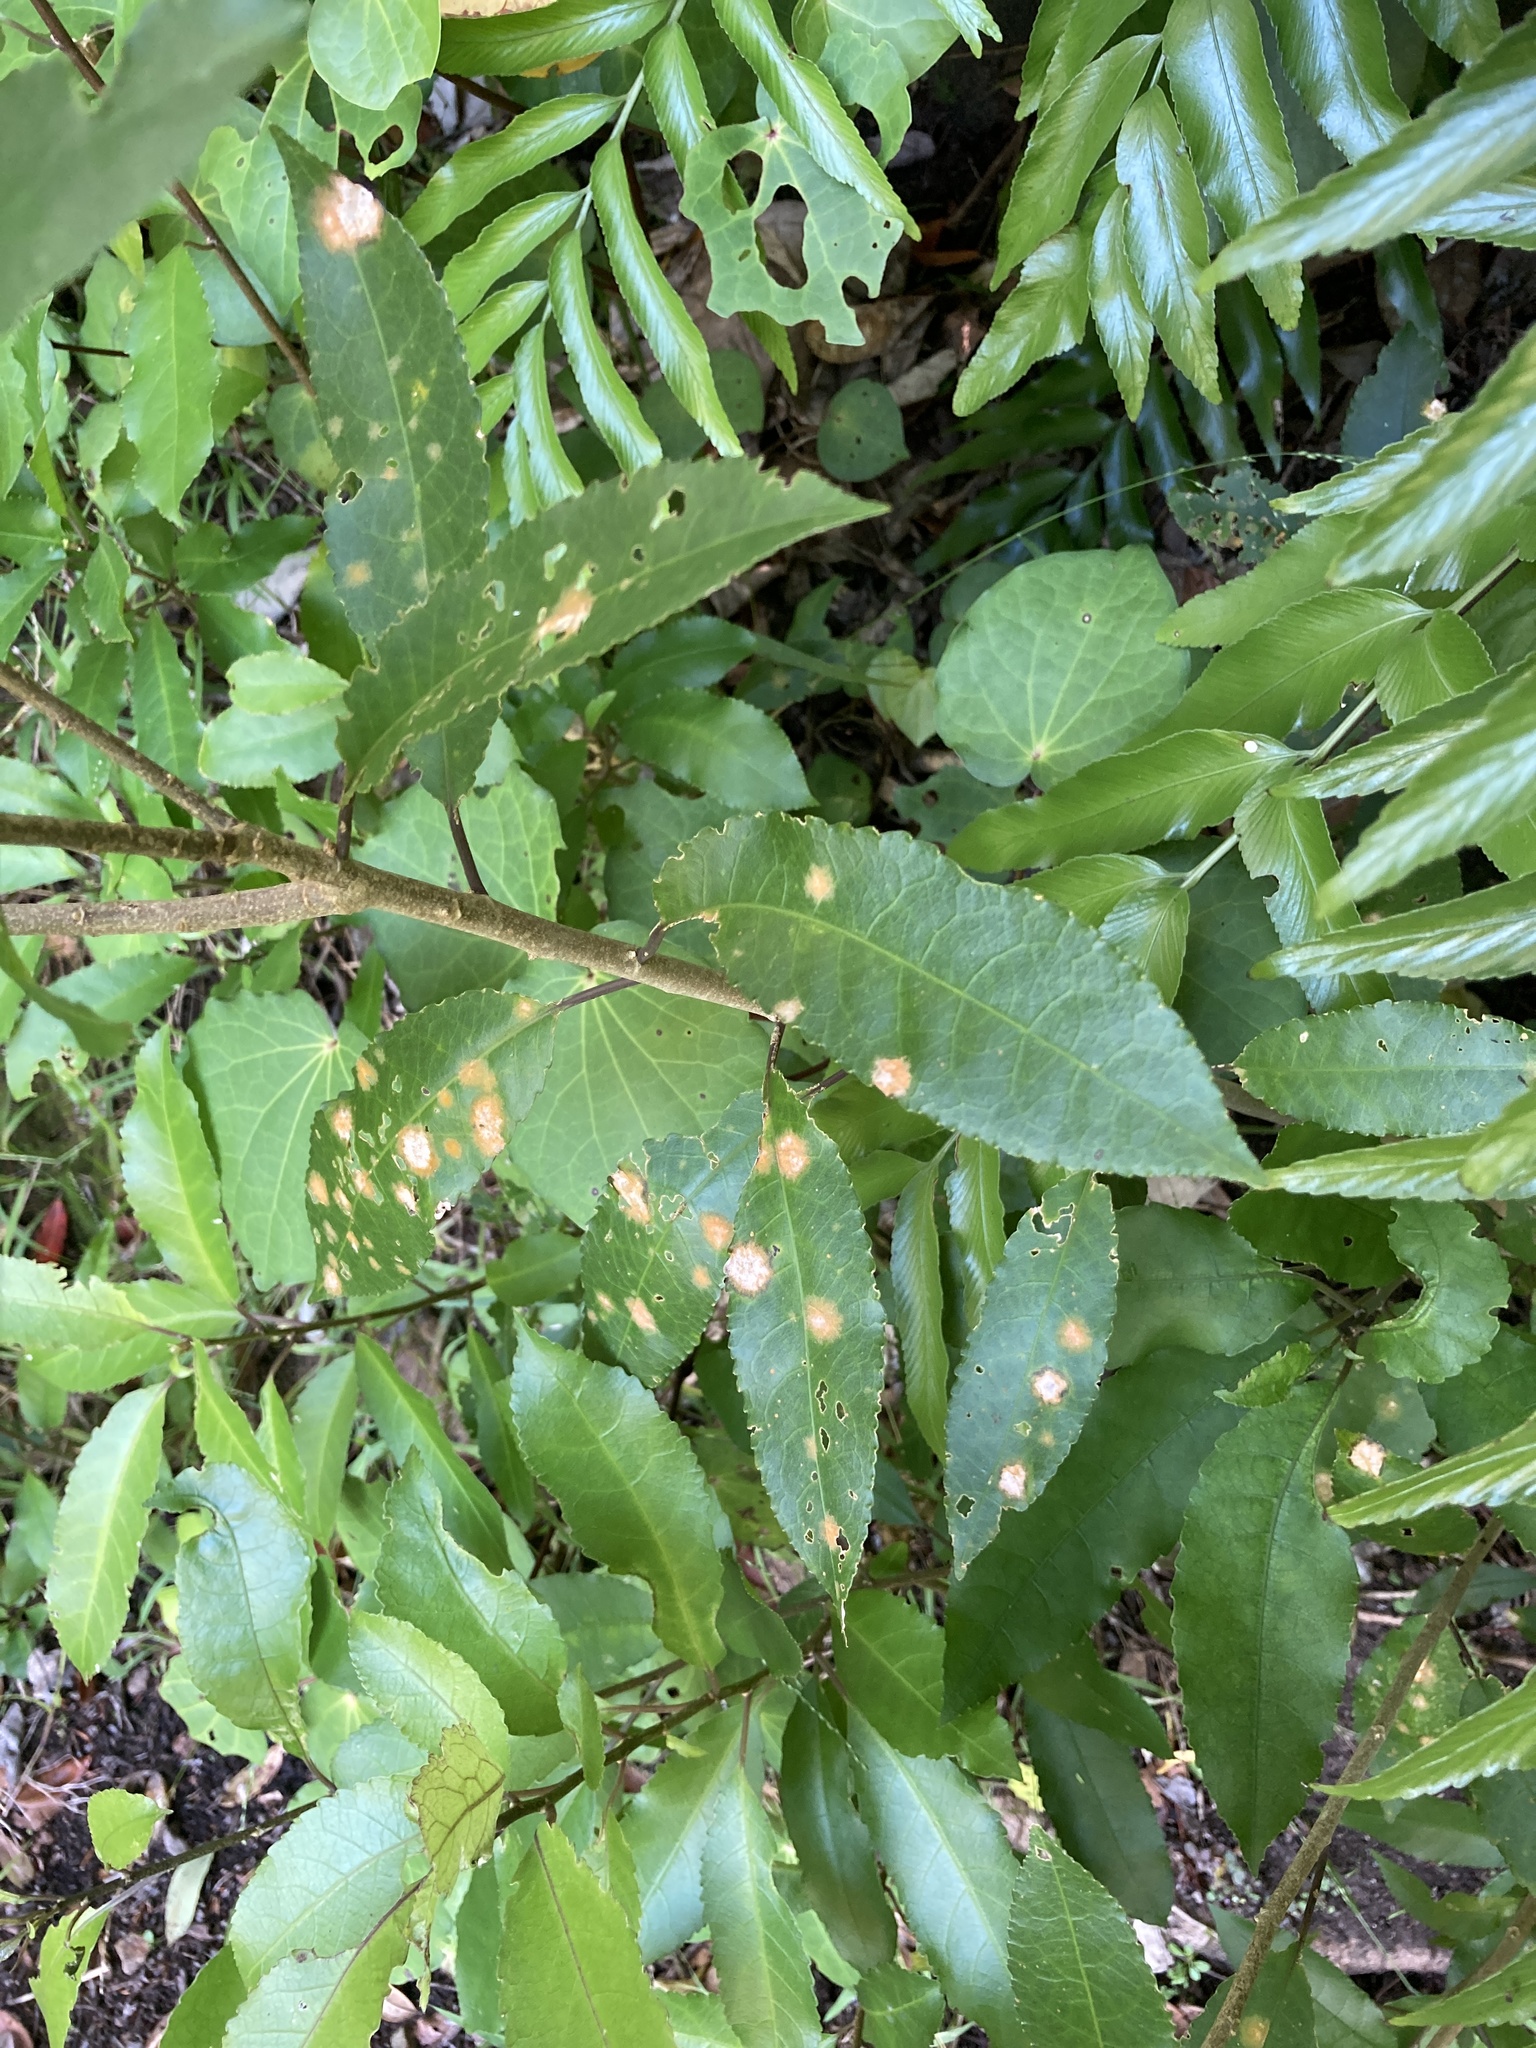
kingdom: Plantae
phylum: Tracheophyta
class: Magnoliopsida
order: Malpighiales
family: Violaceae
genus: Melicytus
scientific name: Melicytus ramiflorus
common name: Mahoe
